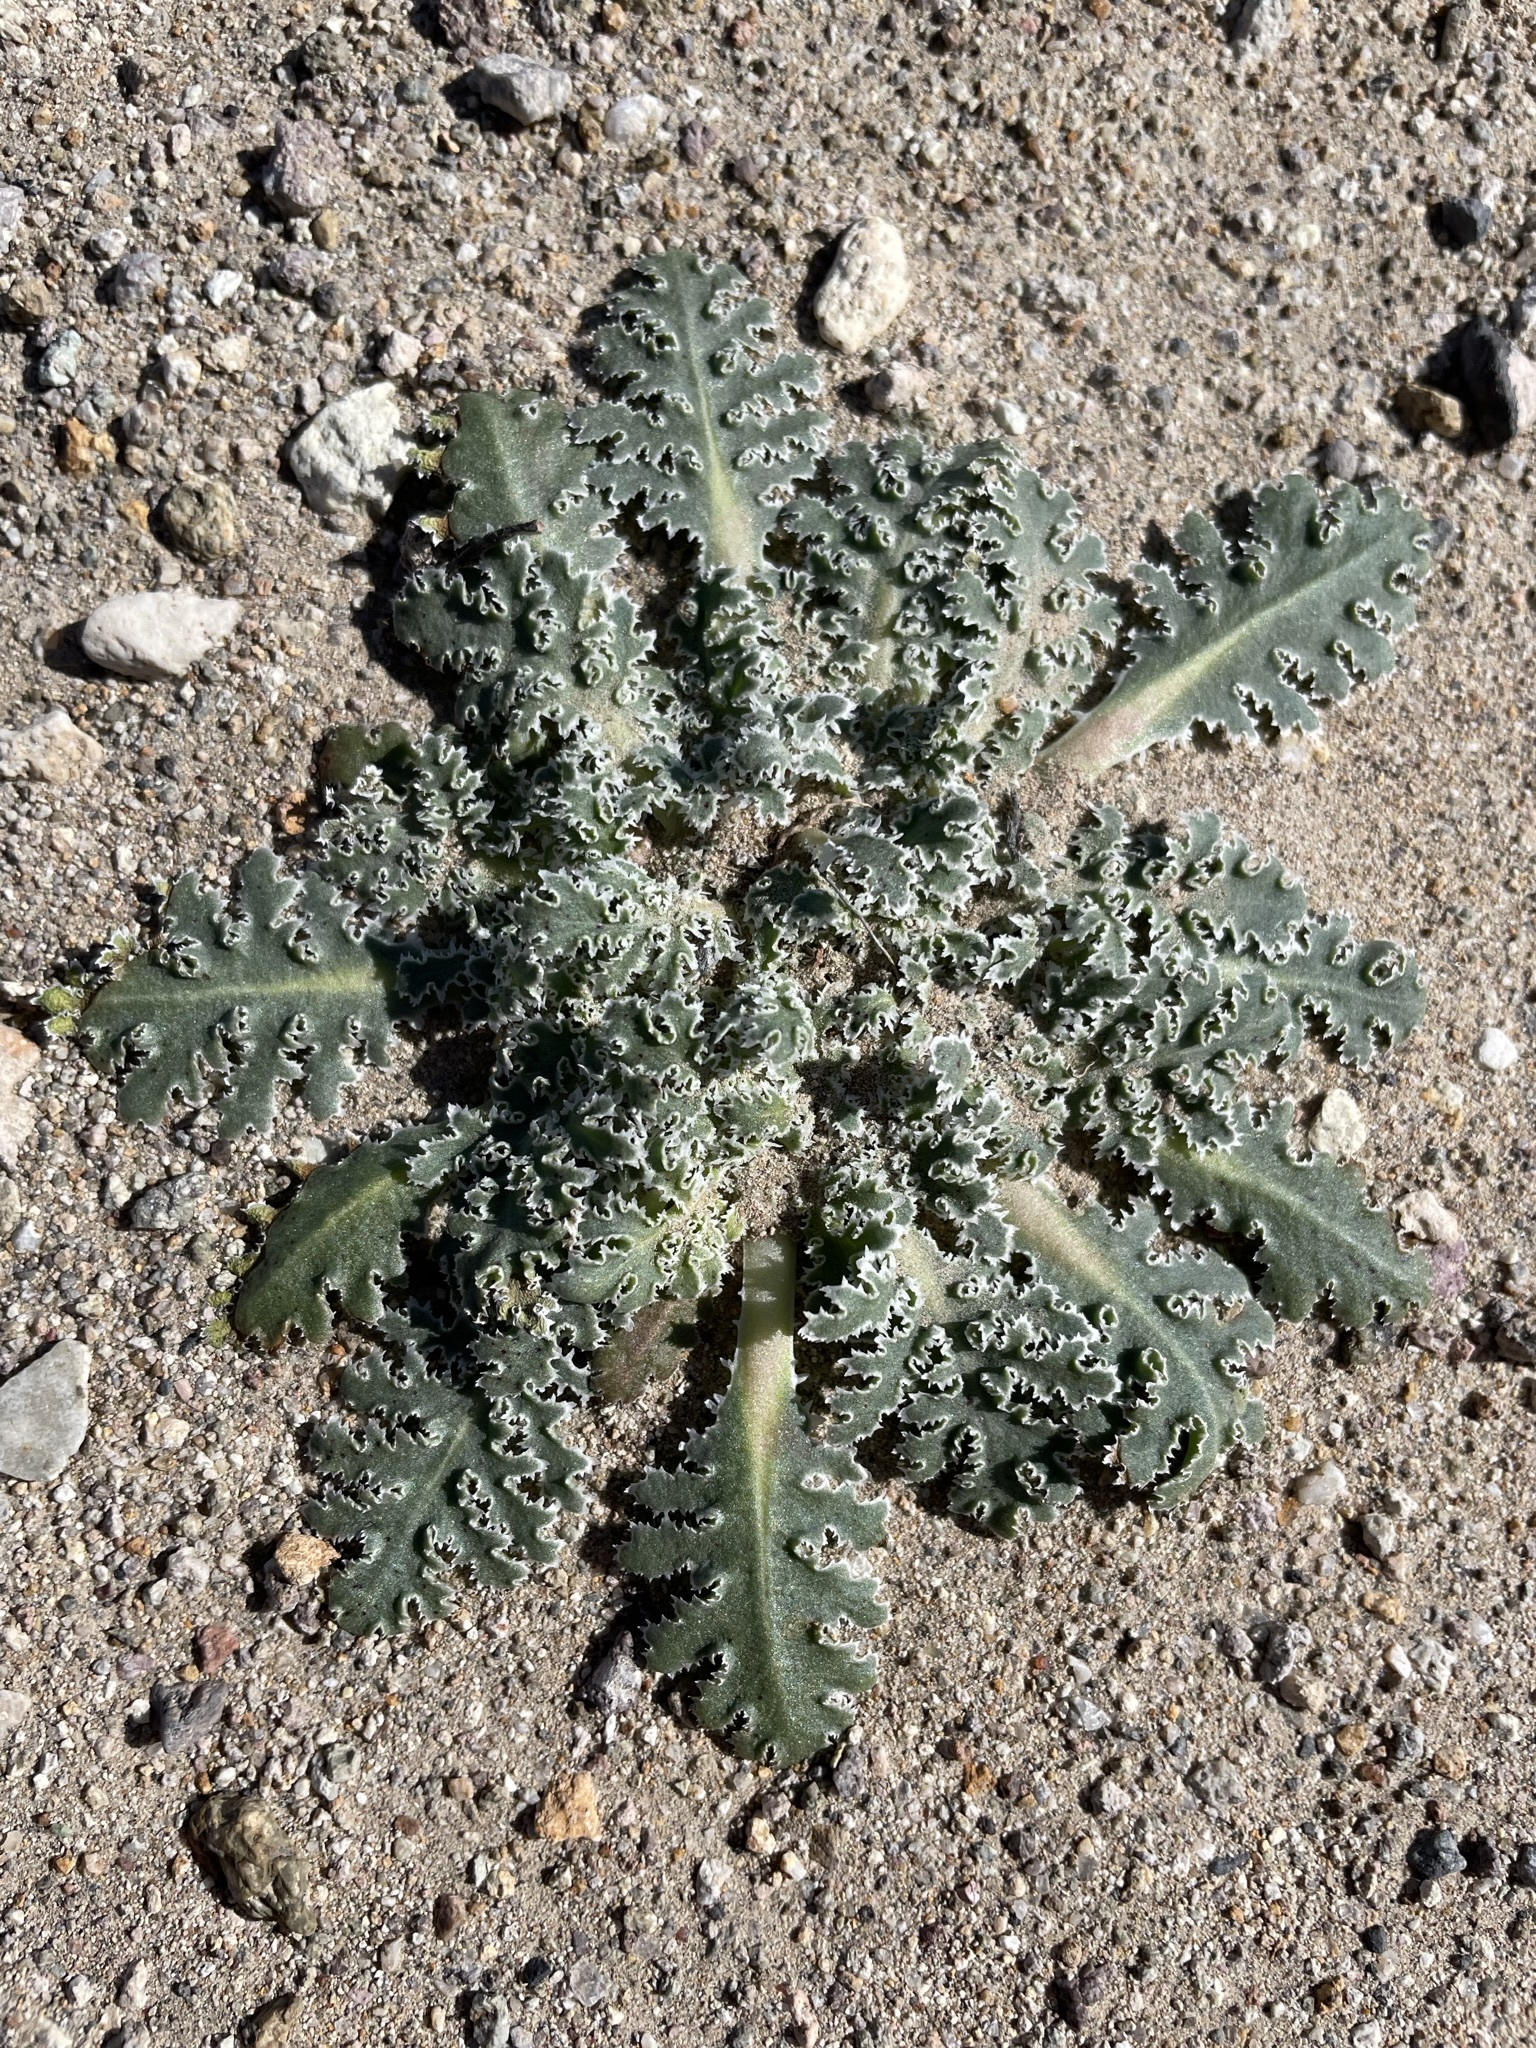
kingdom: Plantae
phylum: Tracheophyta
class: Magnoliopsida
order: Asterales
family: Asteraceae
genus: Glyptopleura
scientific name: Glyptopleura marginata
